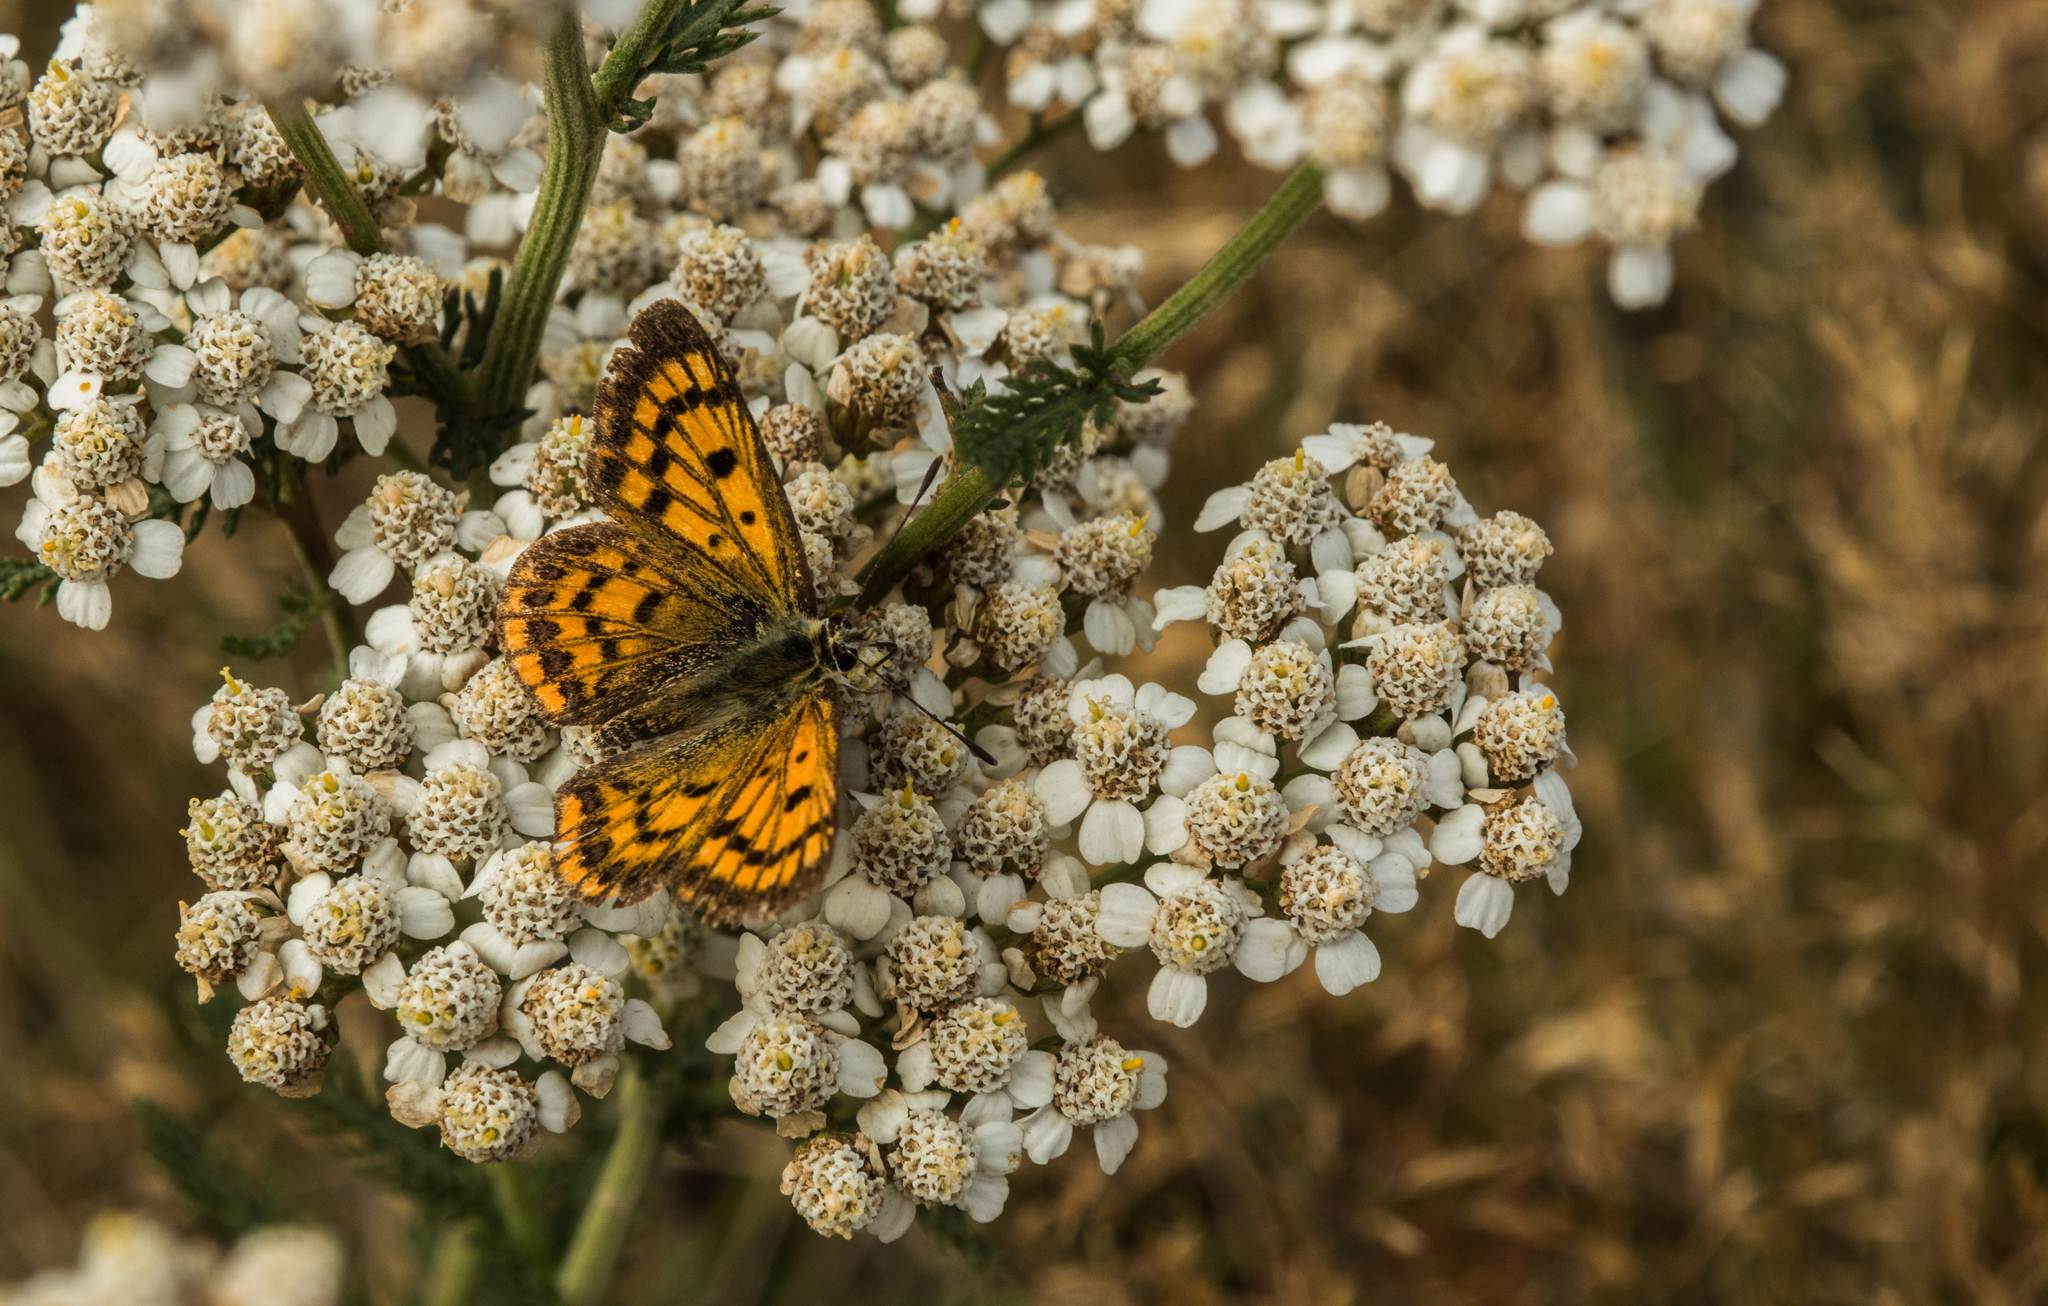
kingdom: Plantae
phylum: Tracheophyta
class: Magnoliopsida
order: Asterales
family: Asteraceae
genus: Achillea
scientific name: Achillea millefolium
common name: Yarrow
